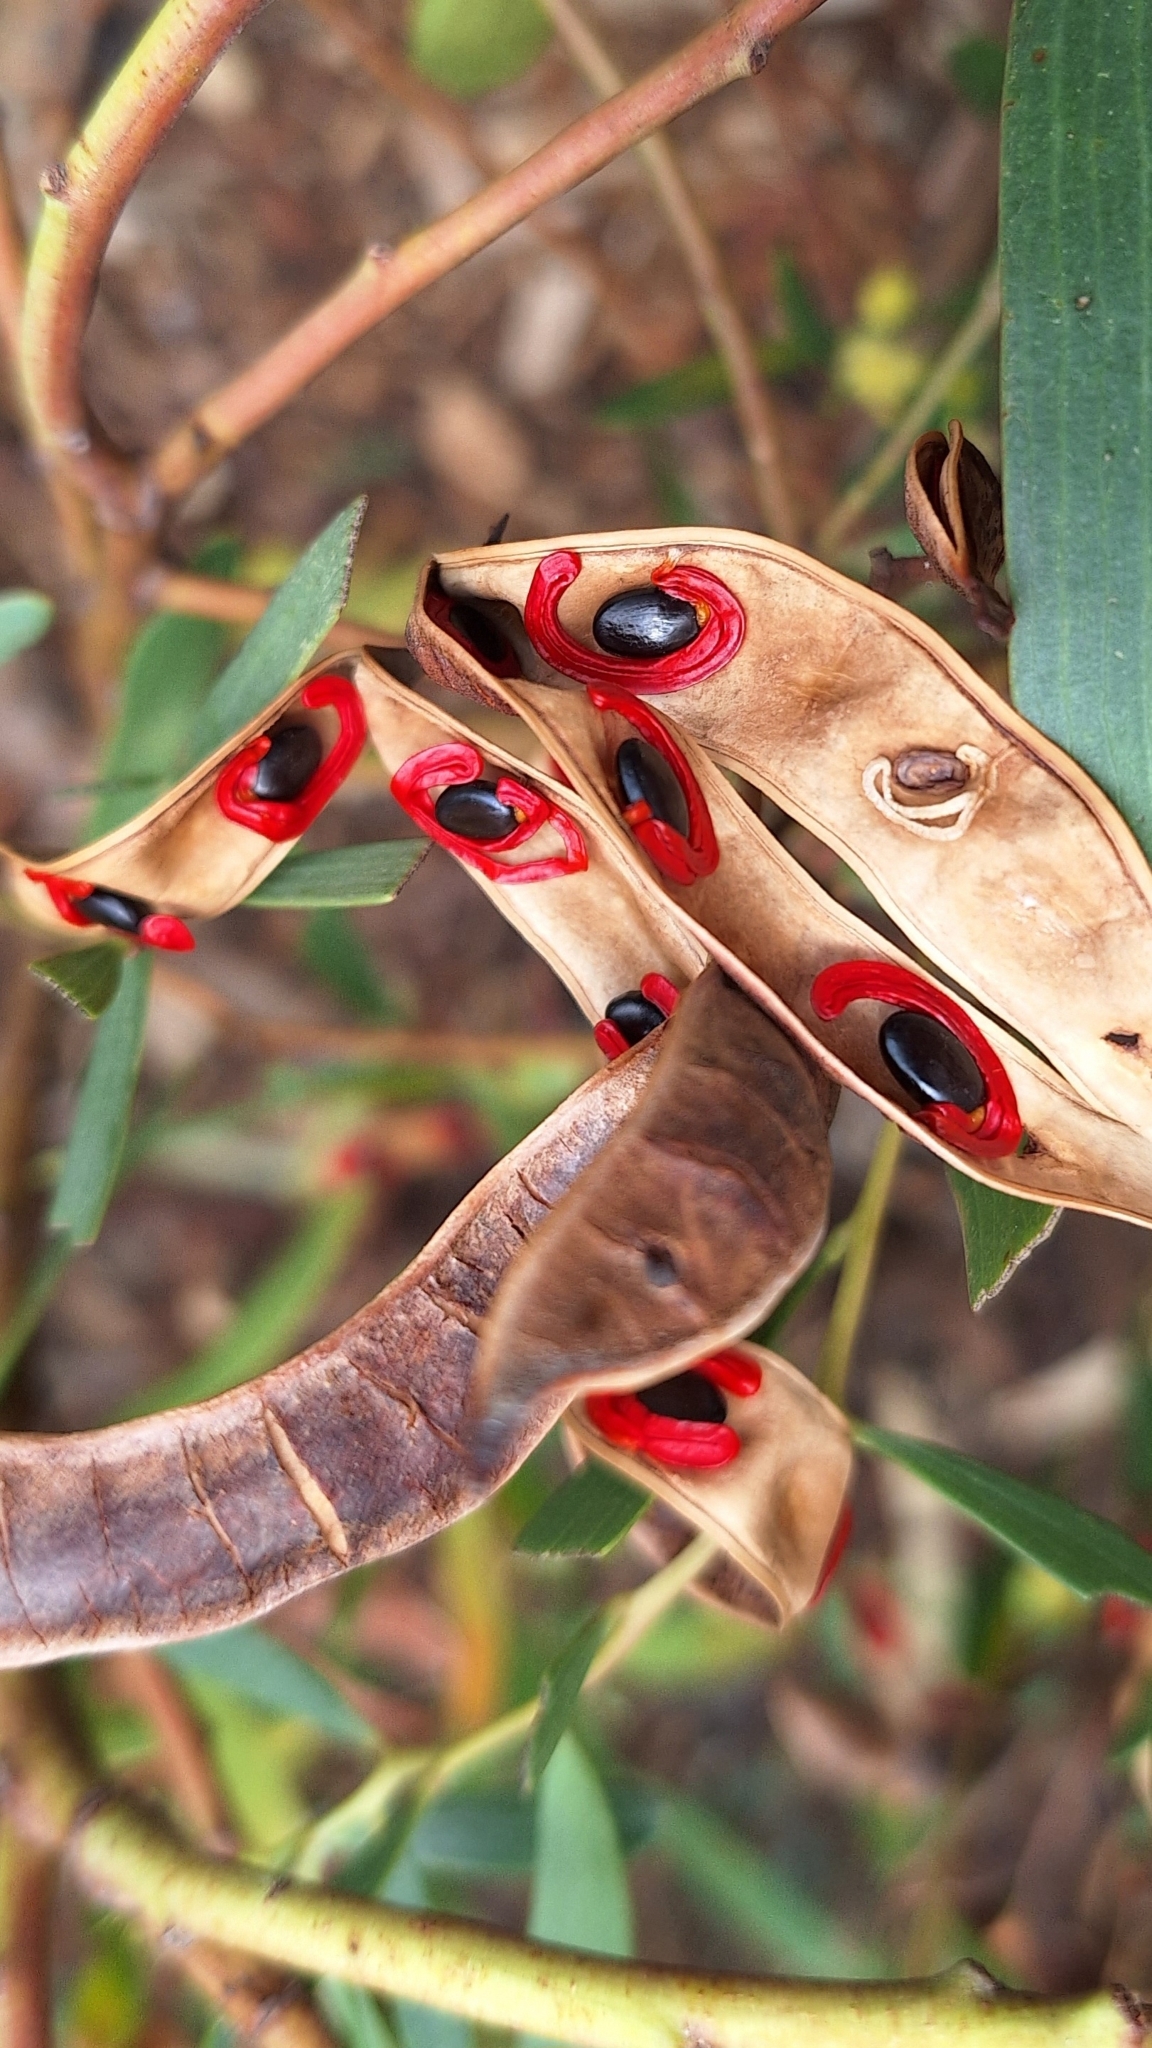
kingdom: Plantae
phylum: Tracheophyta
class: Magnoliopsida
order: Fabales
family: Fabaceae
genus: Acacia
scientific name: Acacia cyclops
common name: Coastal wattle
